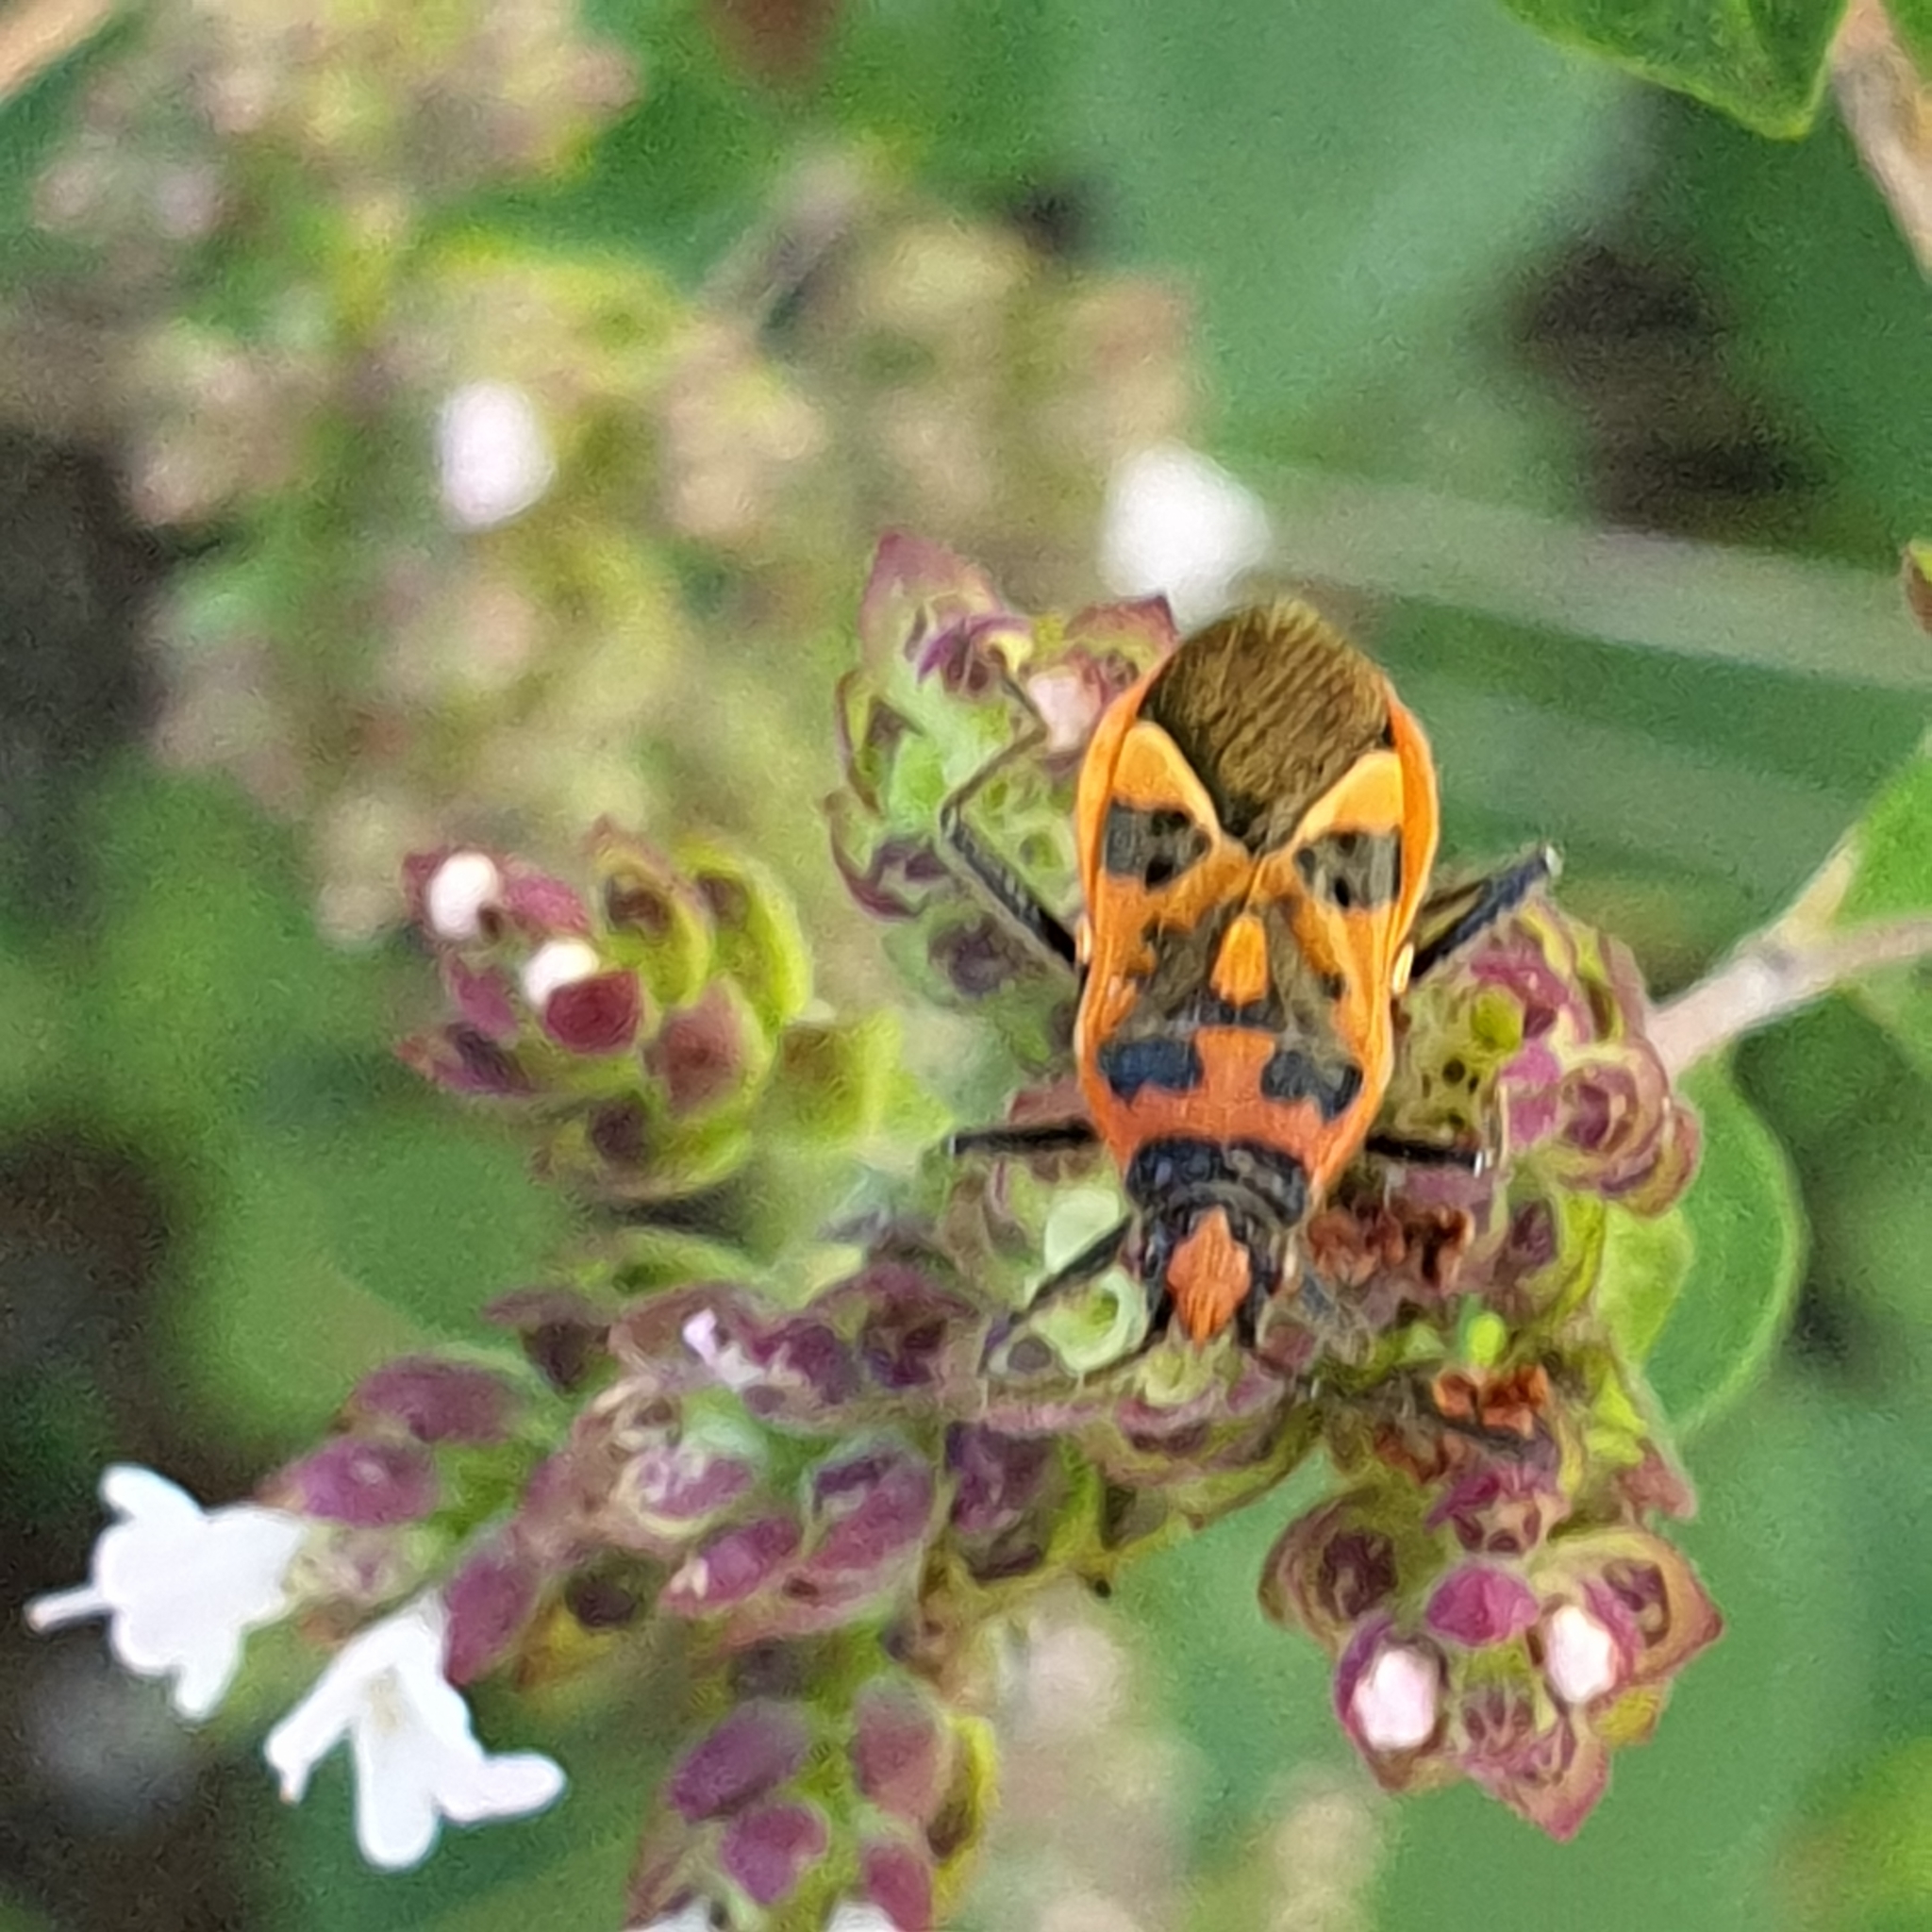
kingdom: Animalia
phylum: Arthropoda
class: Insecta
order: Hemiptera
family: Rhopalidae
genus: Corizus
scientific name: Corizus hyoscyami
